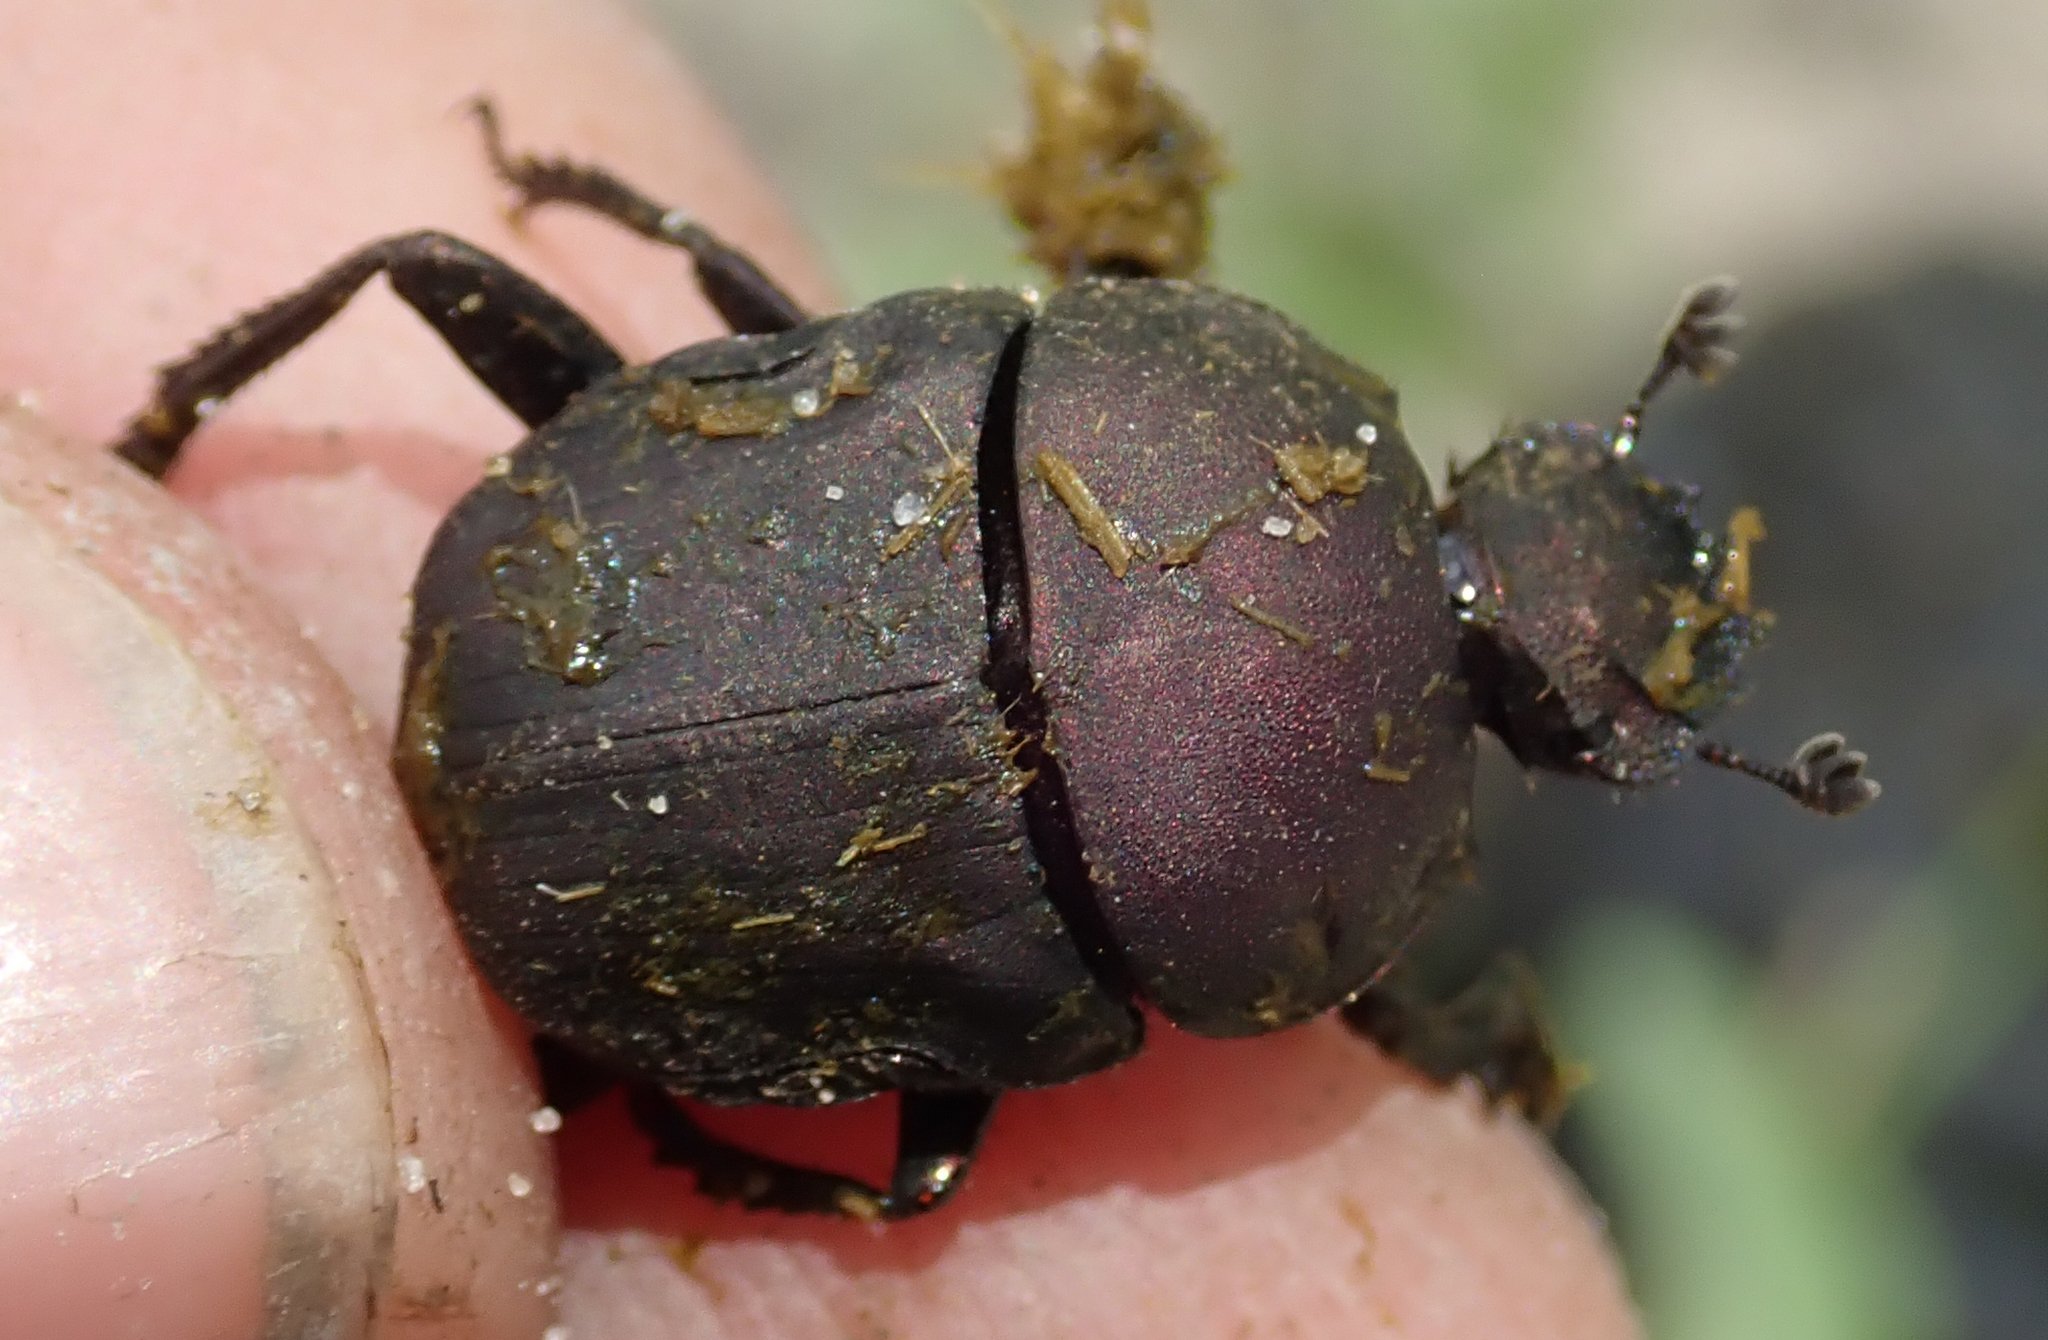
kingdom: Animalia
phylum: Arthropoda
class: Insecta
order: Coleoptera
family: Scarabaeidae
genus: Allogymnopleurus
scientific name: Allogymnopleurus splendidus
